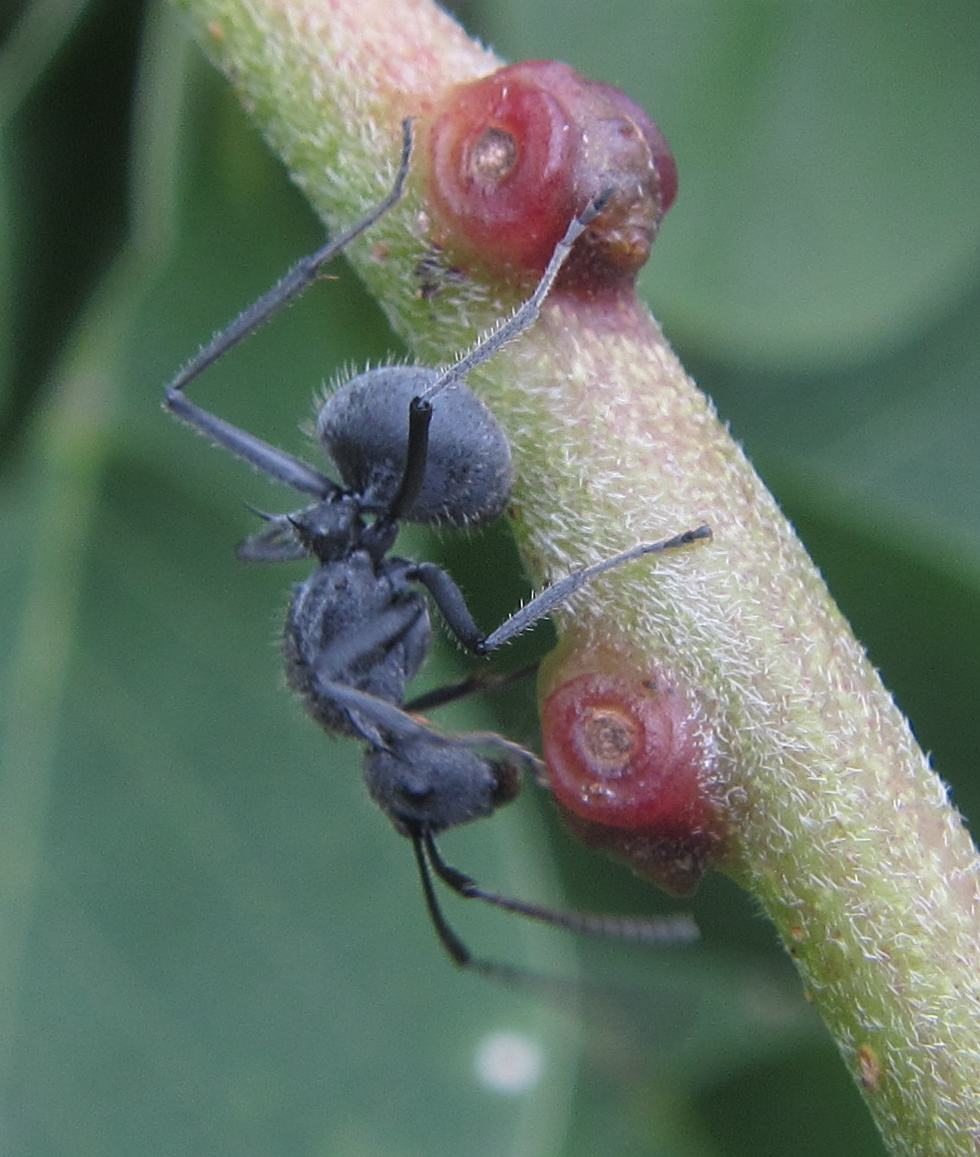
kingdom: Animalia
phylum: Arthropoda
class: Insecta
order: Hymenoptera
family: Formicidae
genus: Polyrhachis
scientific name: Polyrhachis schistacea
